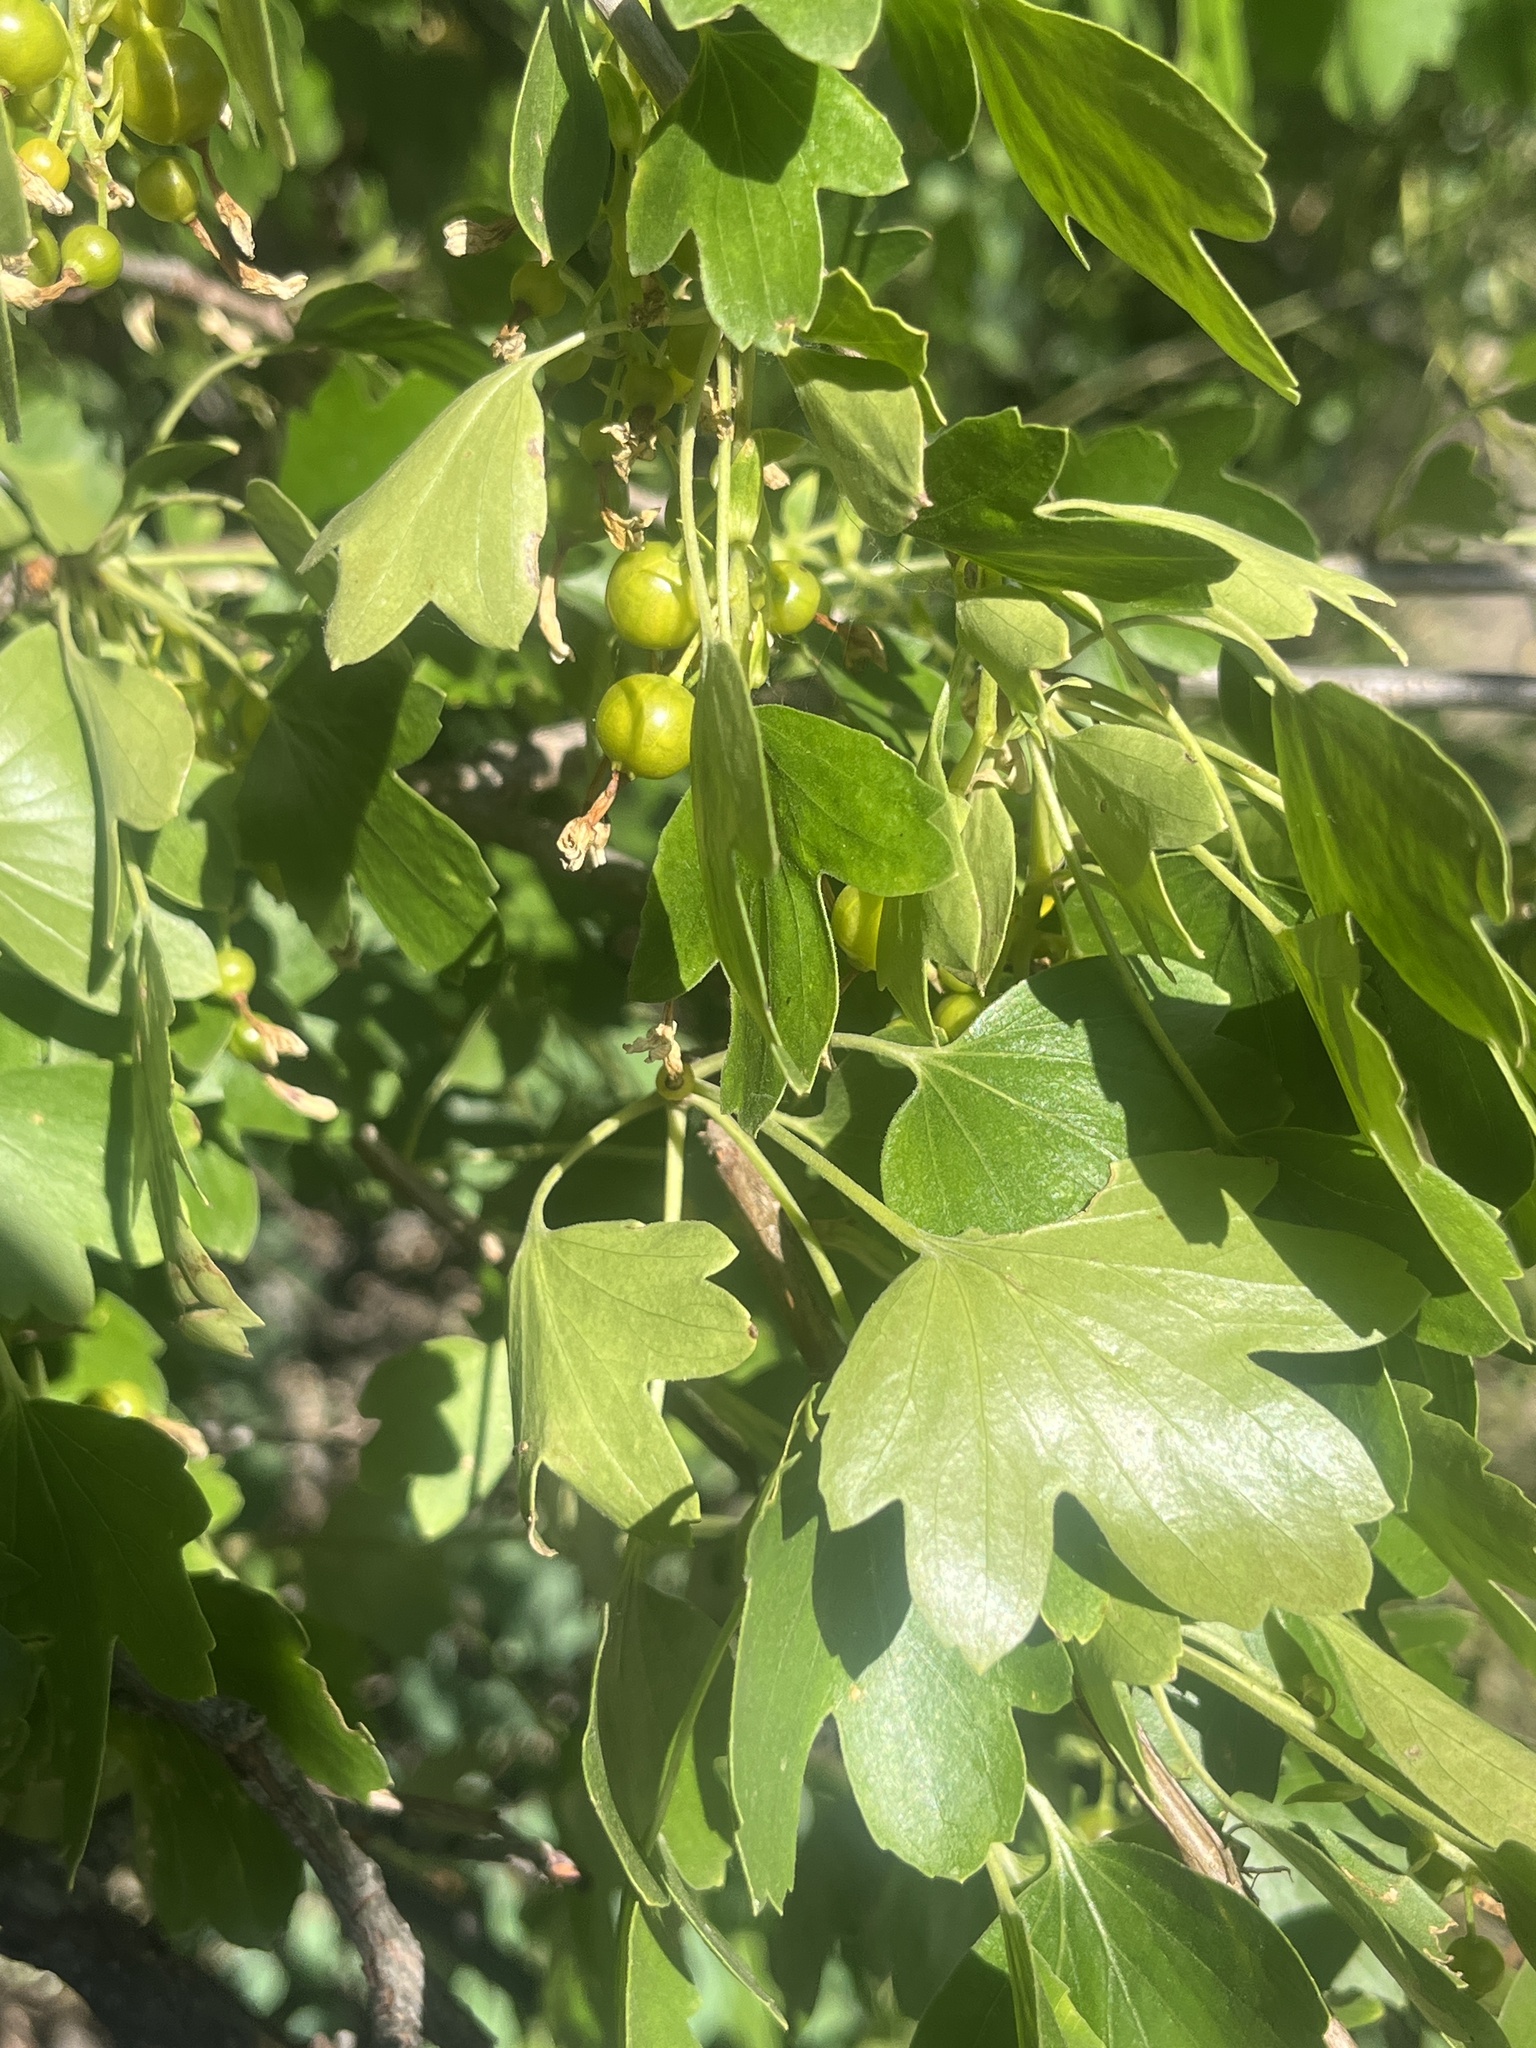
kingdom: Plantae
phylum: Tracheophyta
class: Magnoliopsida
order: Saxifragales
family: Grossulariaceae
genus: Ribes
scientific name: Ribes aureum
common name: Golden currant
